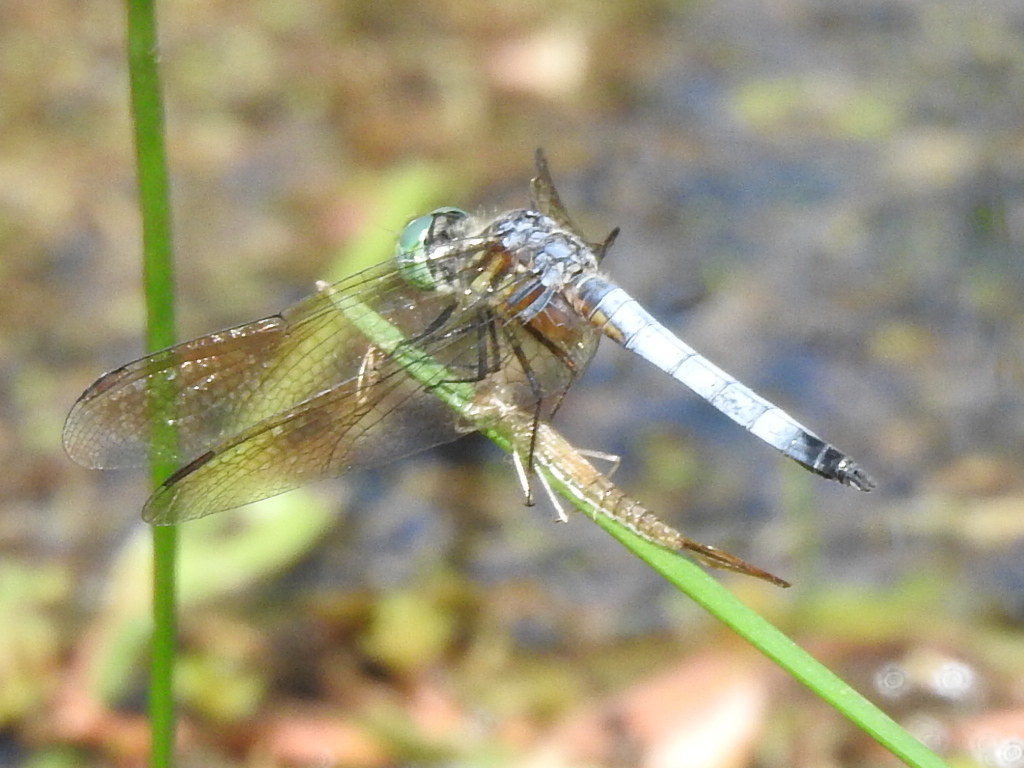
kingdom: Animalia
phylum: Arthropoda
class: Insecta
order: Odonata
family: Libellulidae
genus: Pachydiplax
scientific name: Pachydiplax longipennis
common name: Blue dasher
